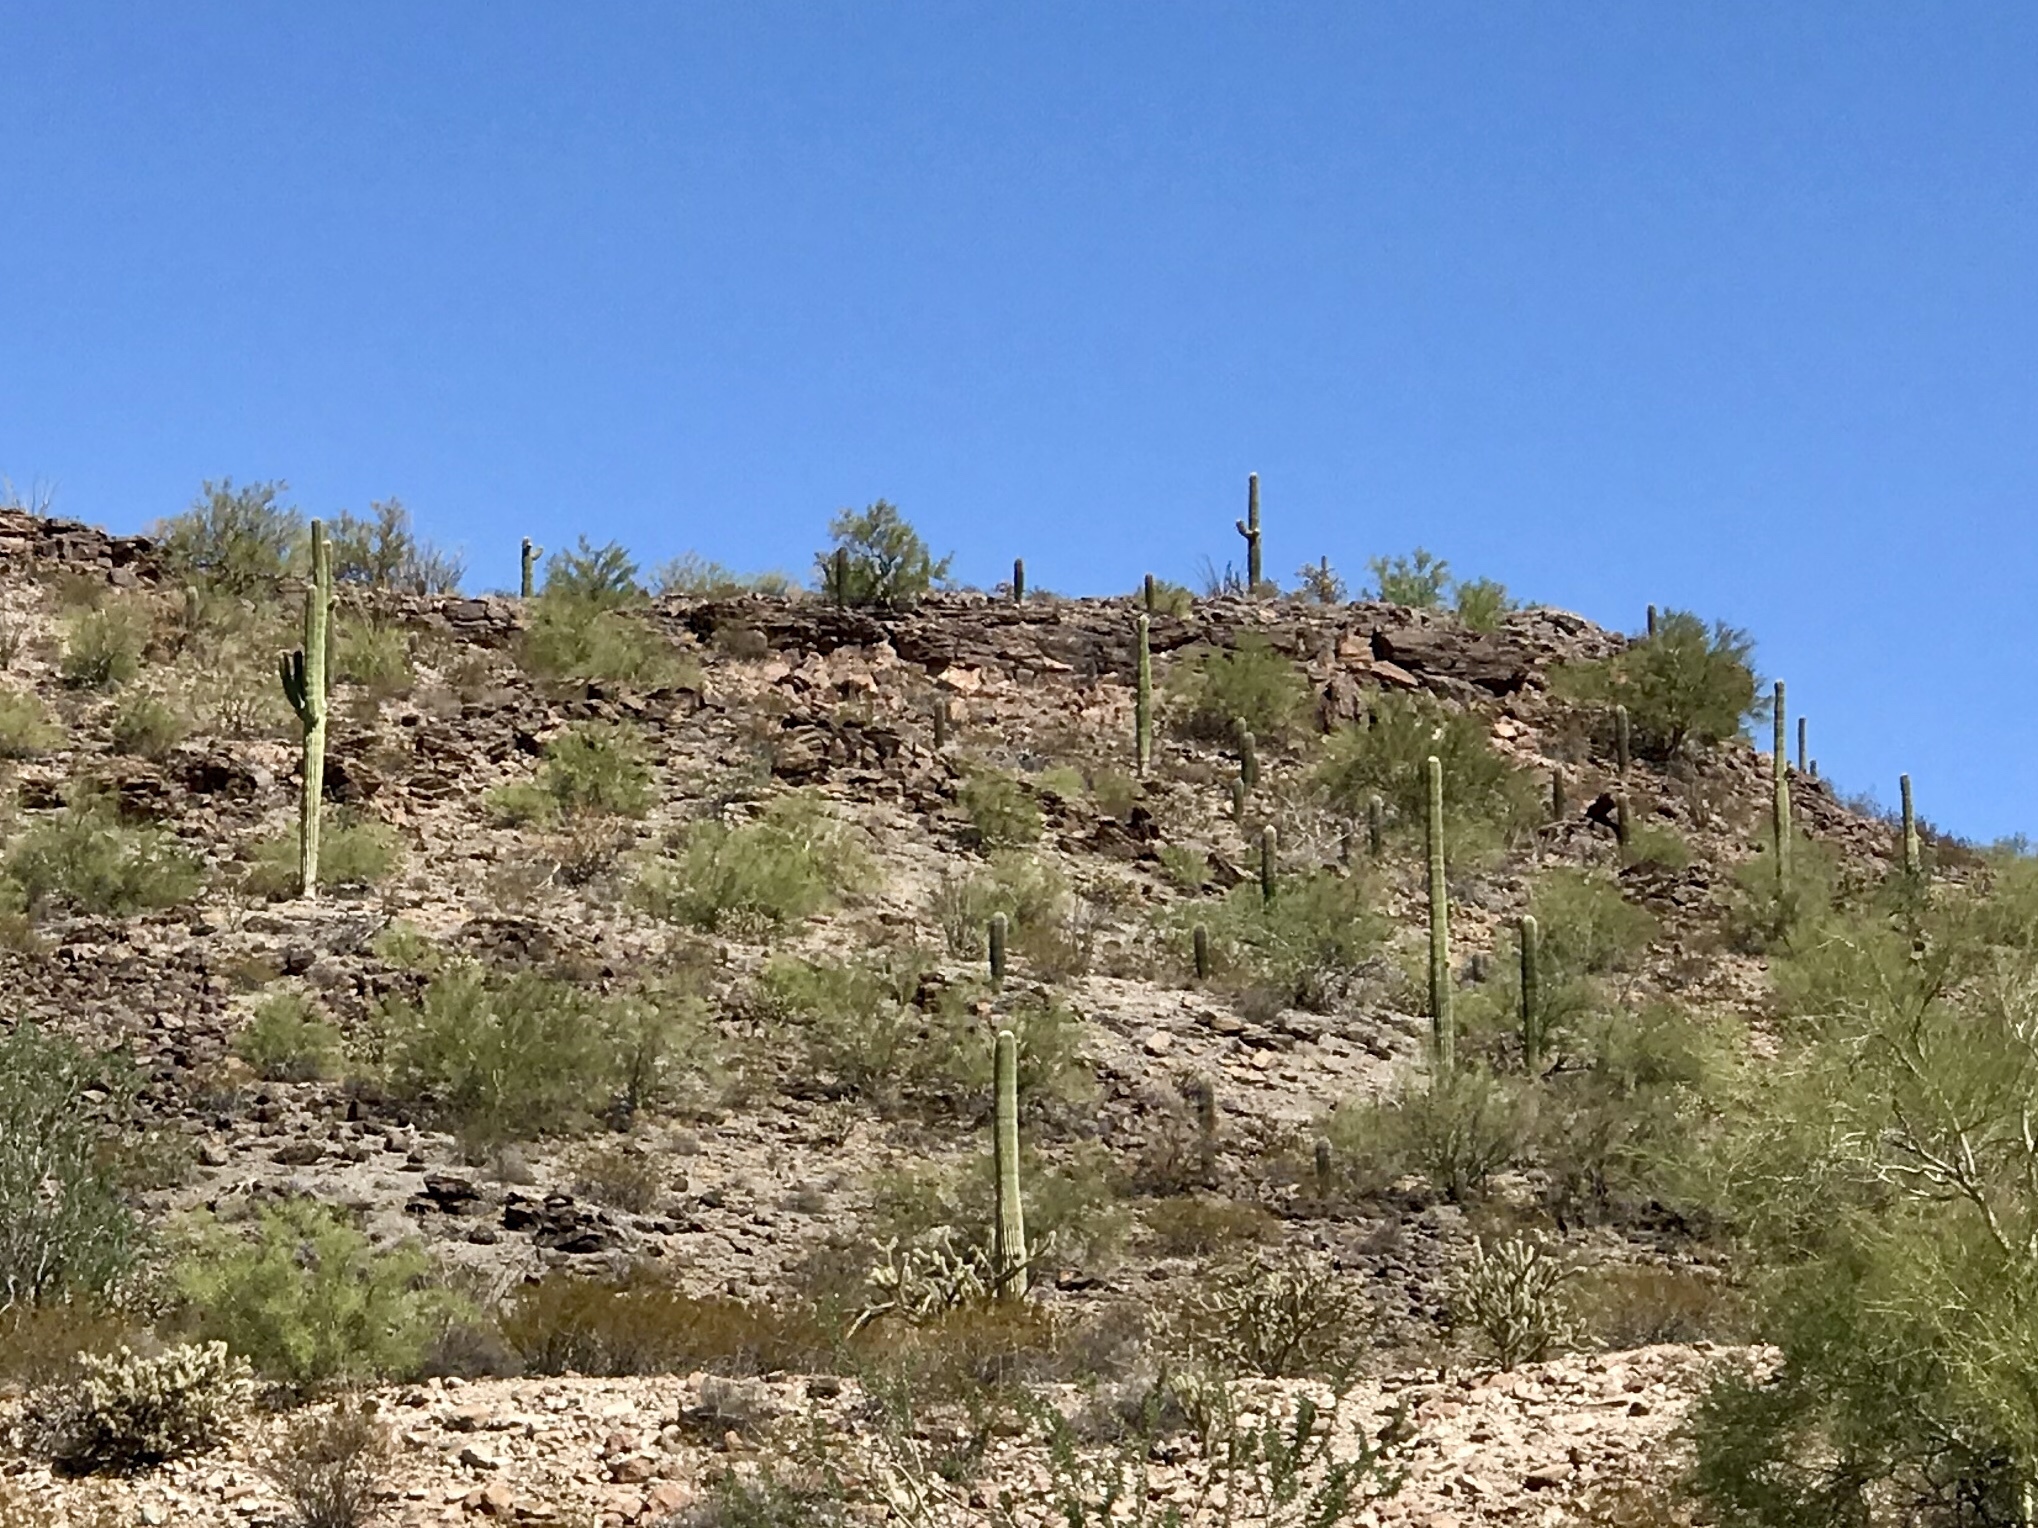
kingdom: Plantae
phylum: Tracheophyta
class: Magnoliopsida
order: Caryophyllales
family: Cactaceae
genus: Carnegiea
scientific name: Carnegiea gigantea
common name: Saguaro
